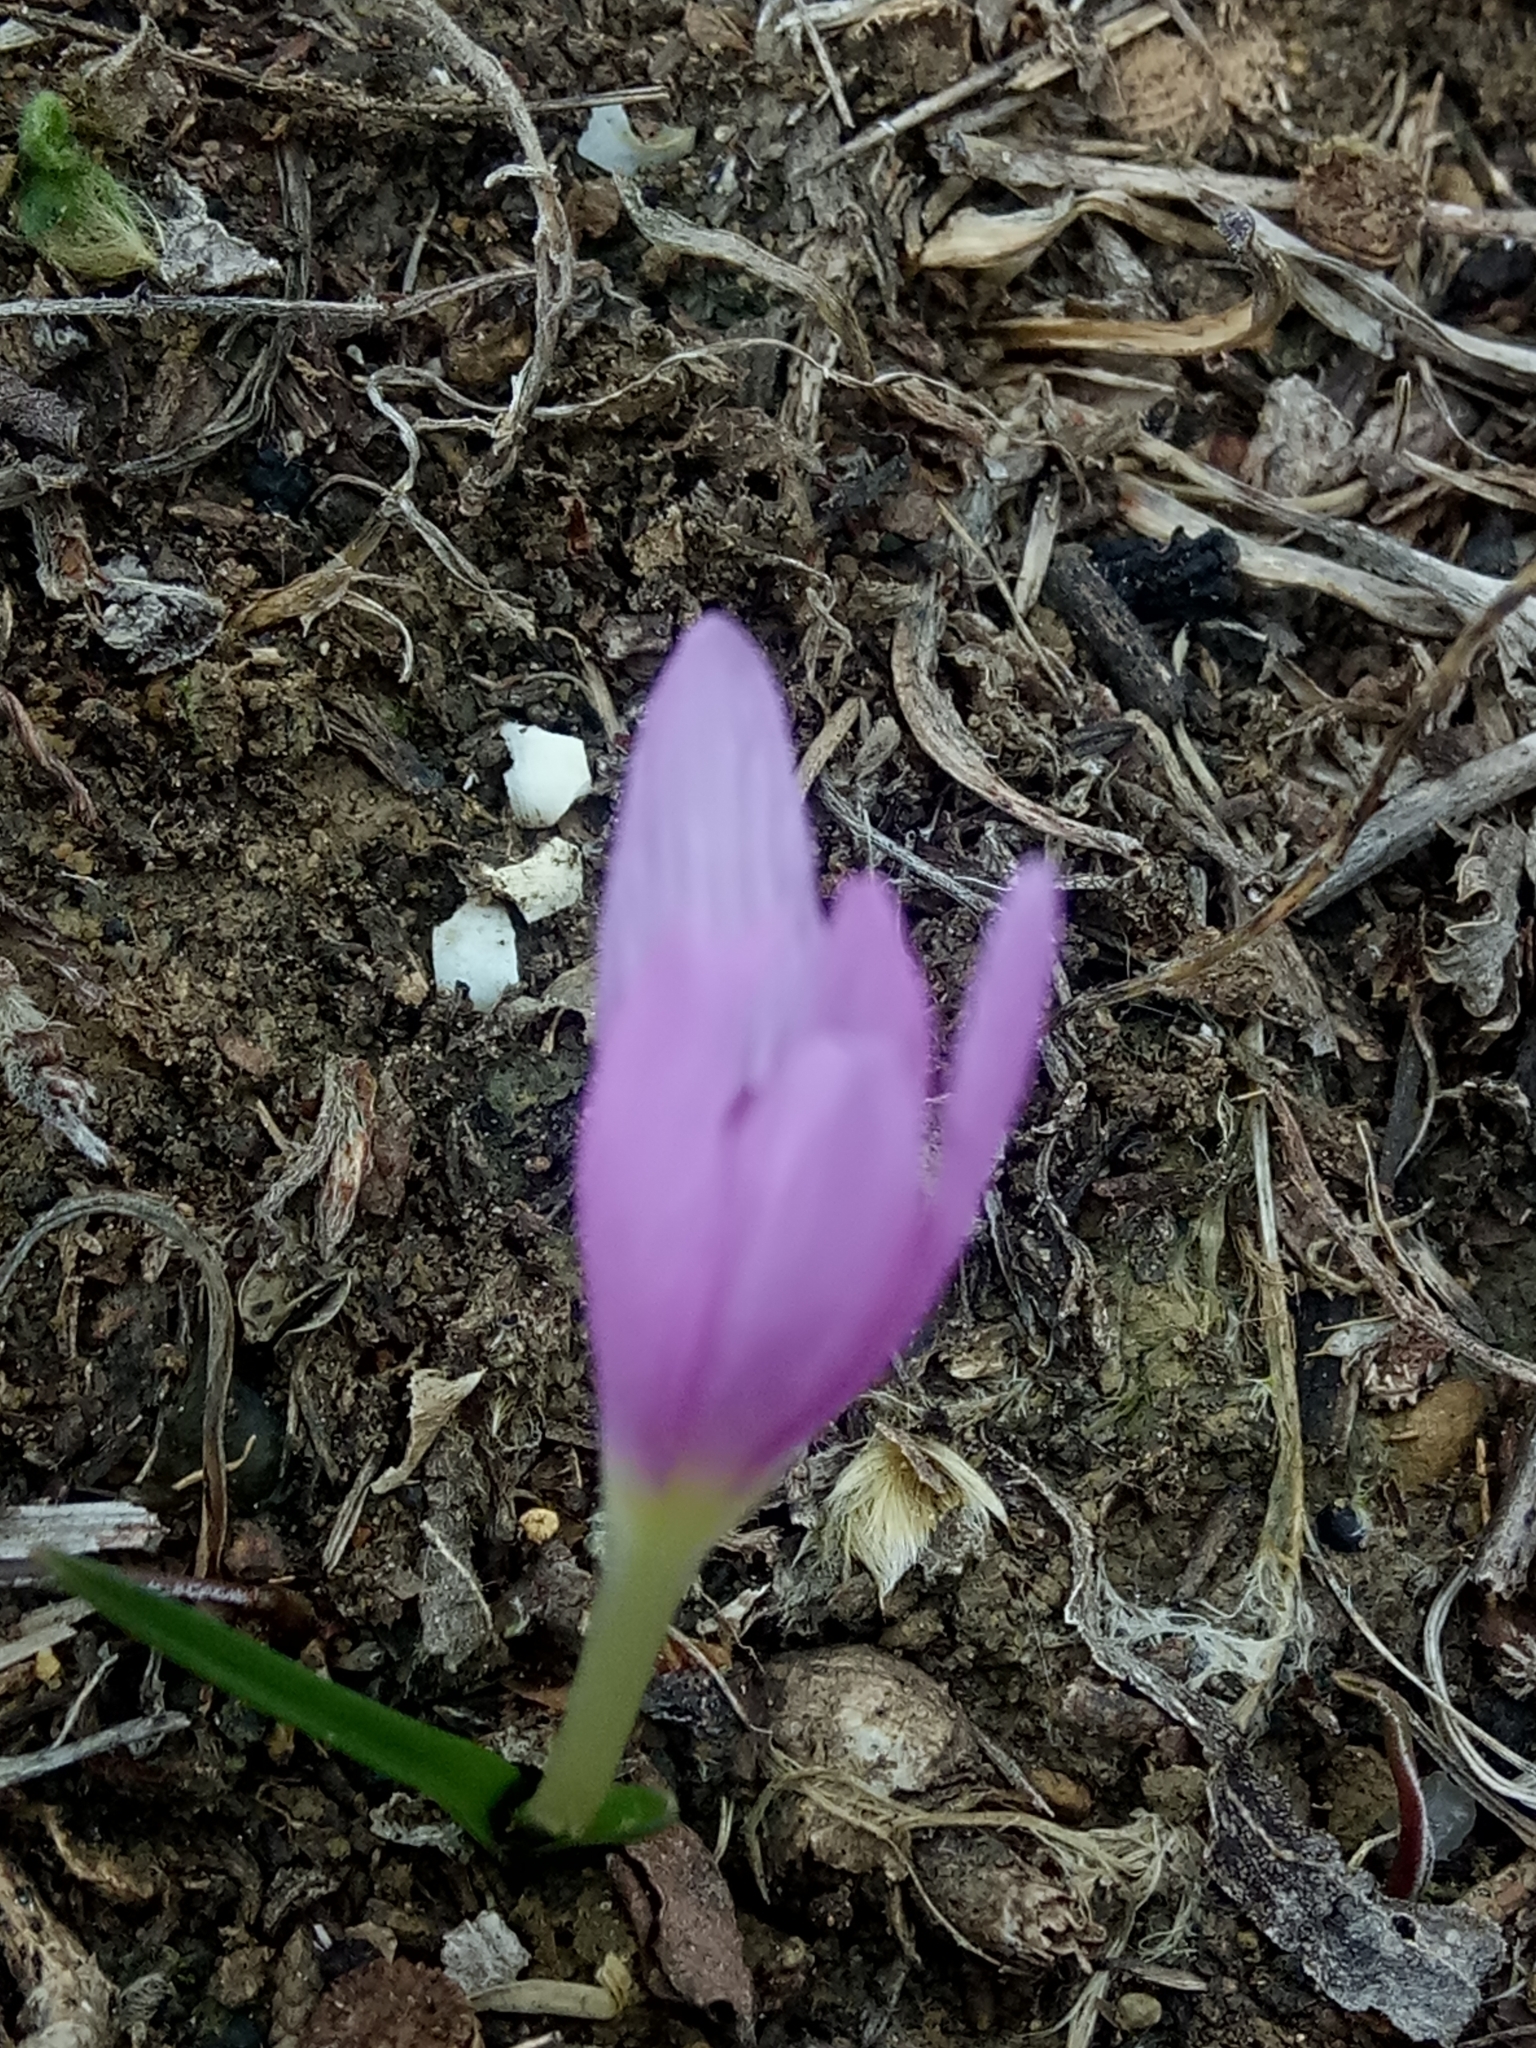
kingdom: Plantae
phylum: Tracheophyta
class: Liliopsida
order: Liliales
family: Colchicaceae
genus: Colchicum
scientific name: Colchicum cupanii
